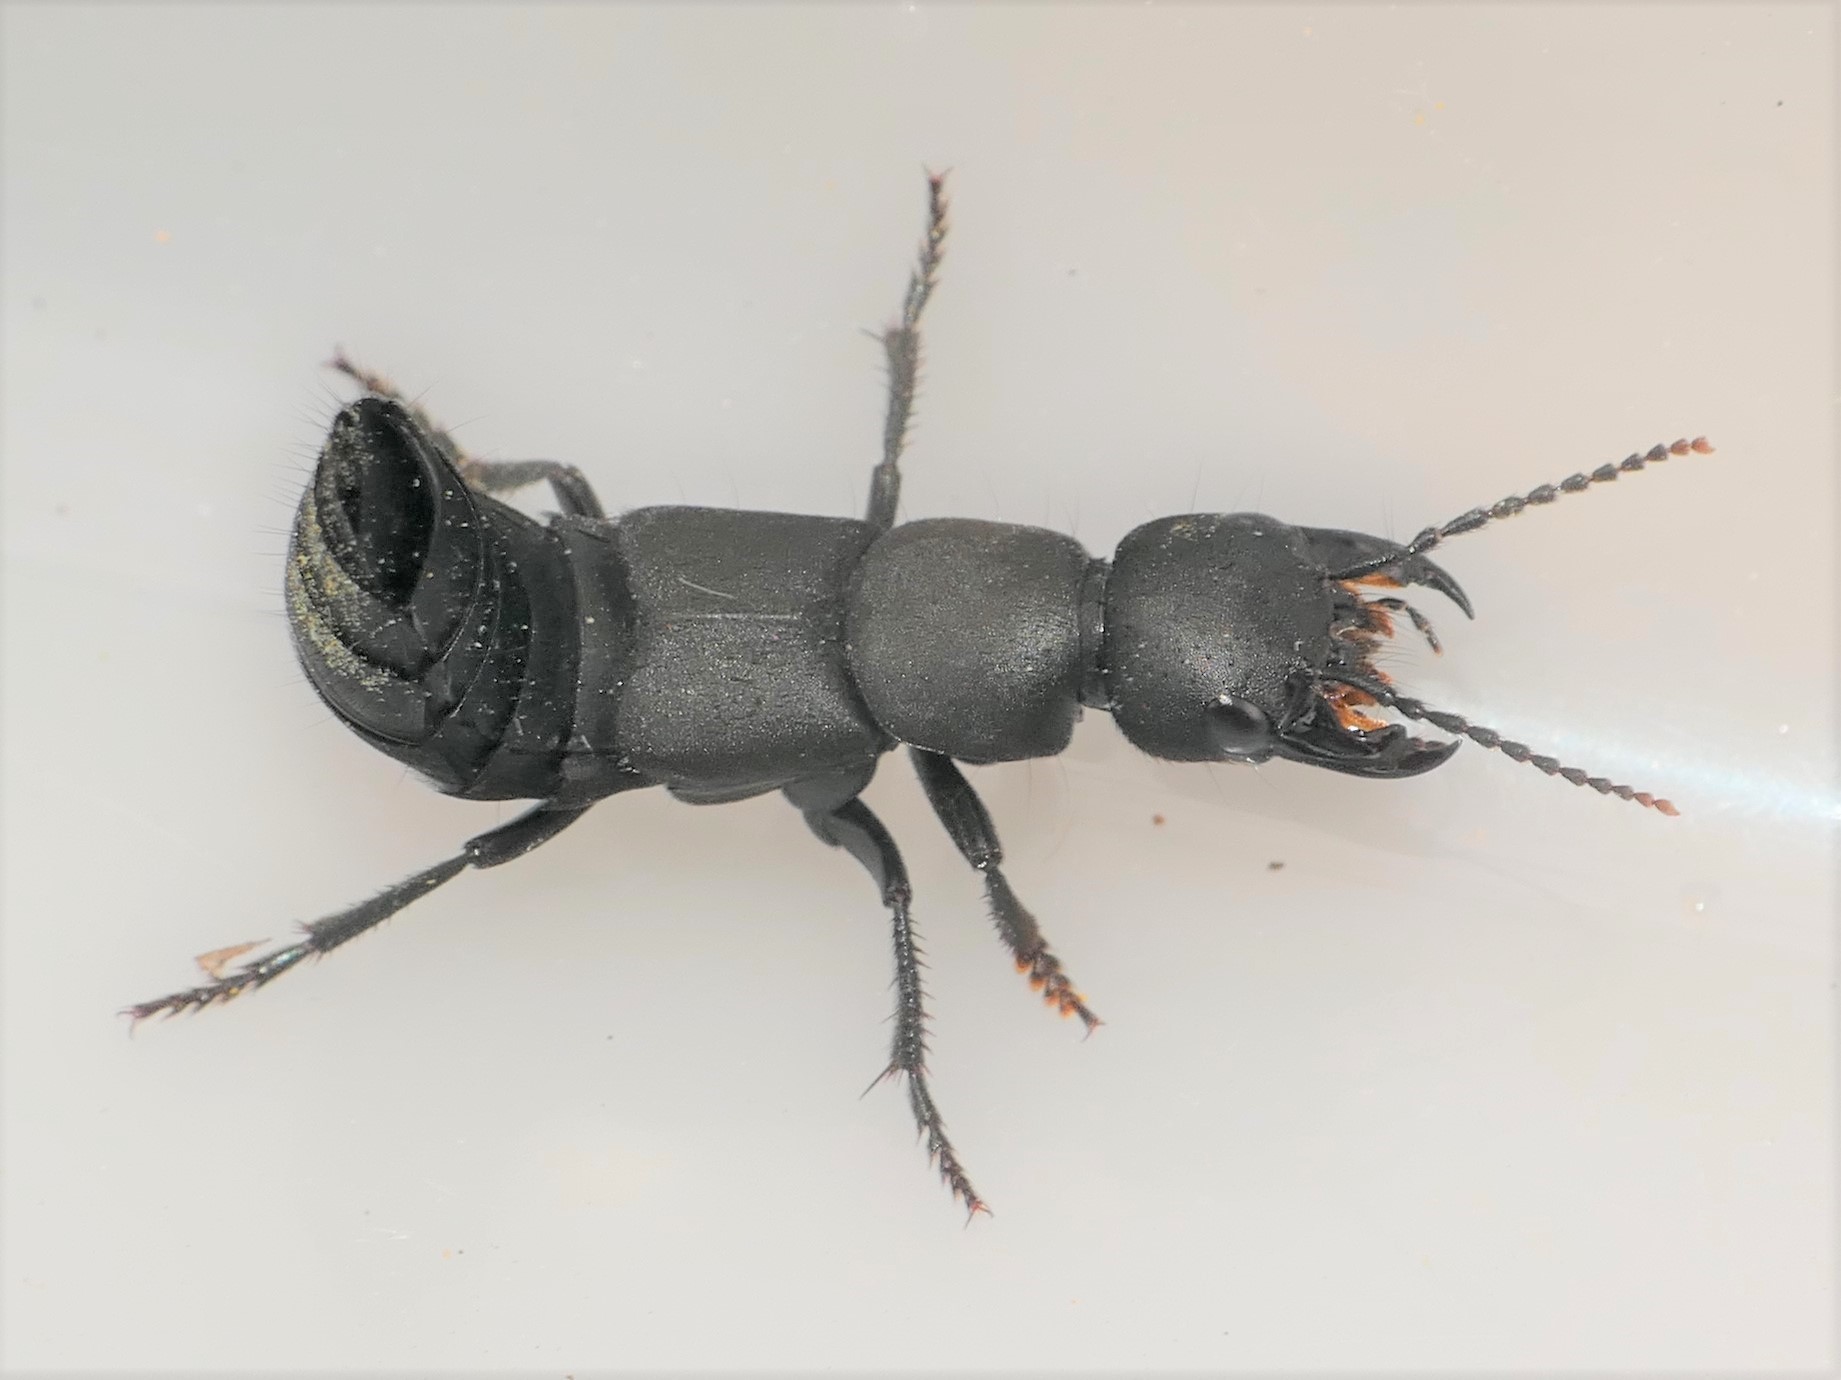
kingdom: Animalia
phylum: Arthropoda
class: Insecta
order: Coleoptera
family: Staphylinidae
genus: Ocypus
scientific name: Ocypus olens
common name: Devil's coach-horse
